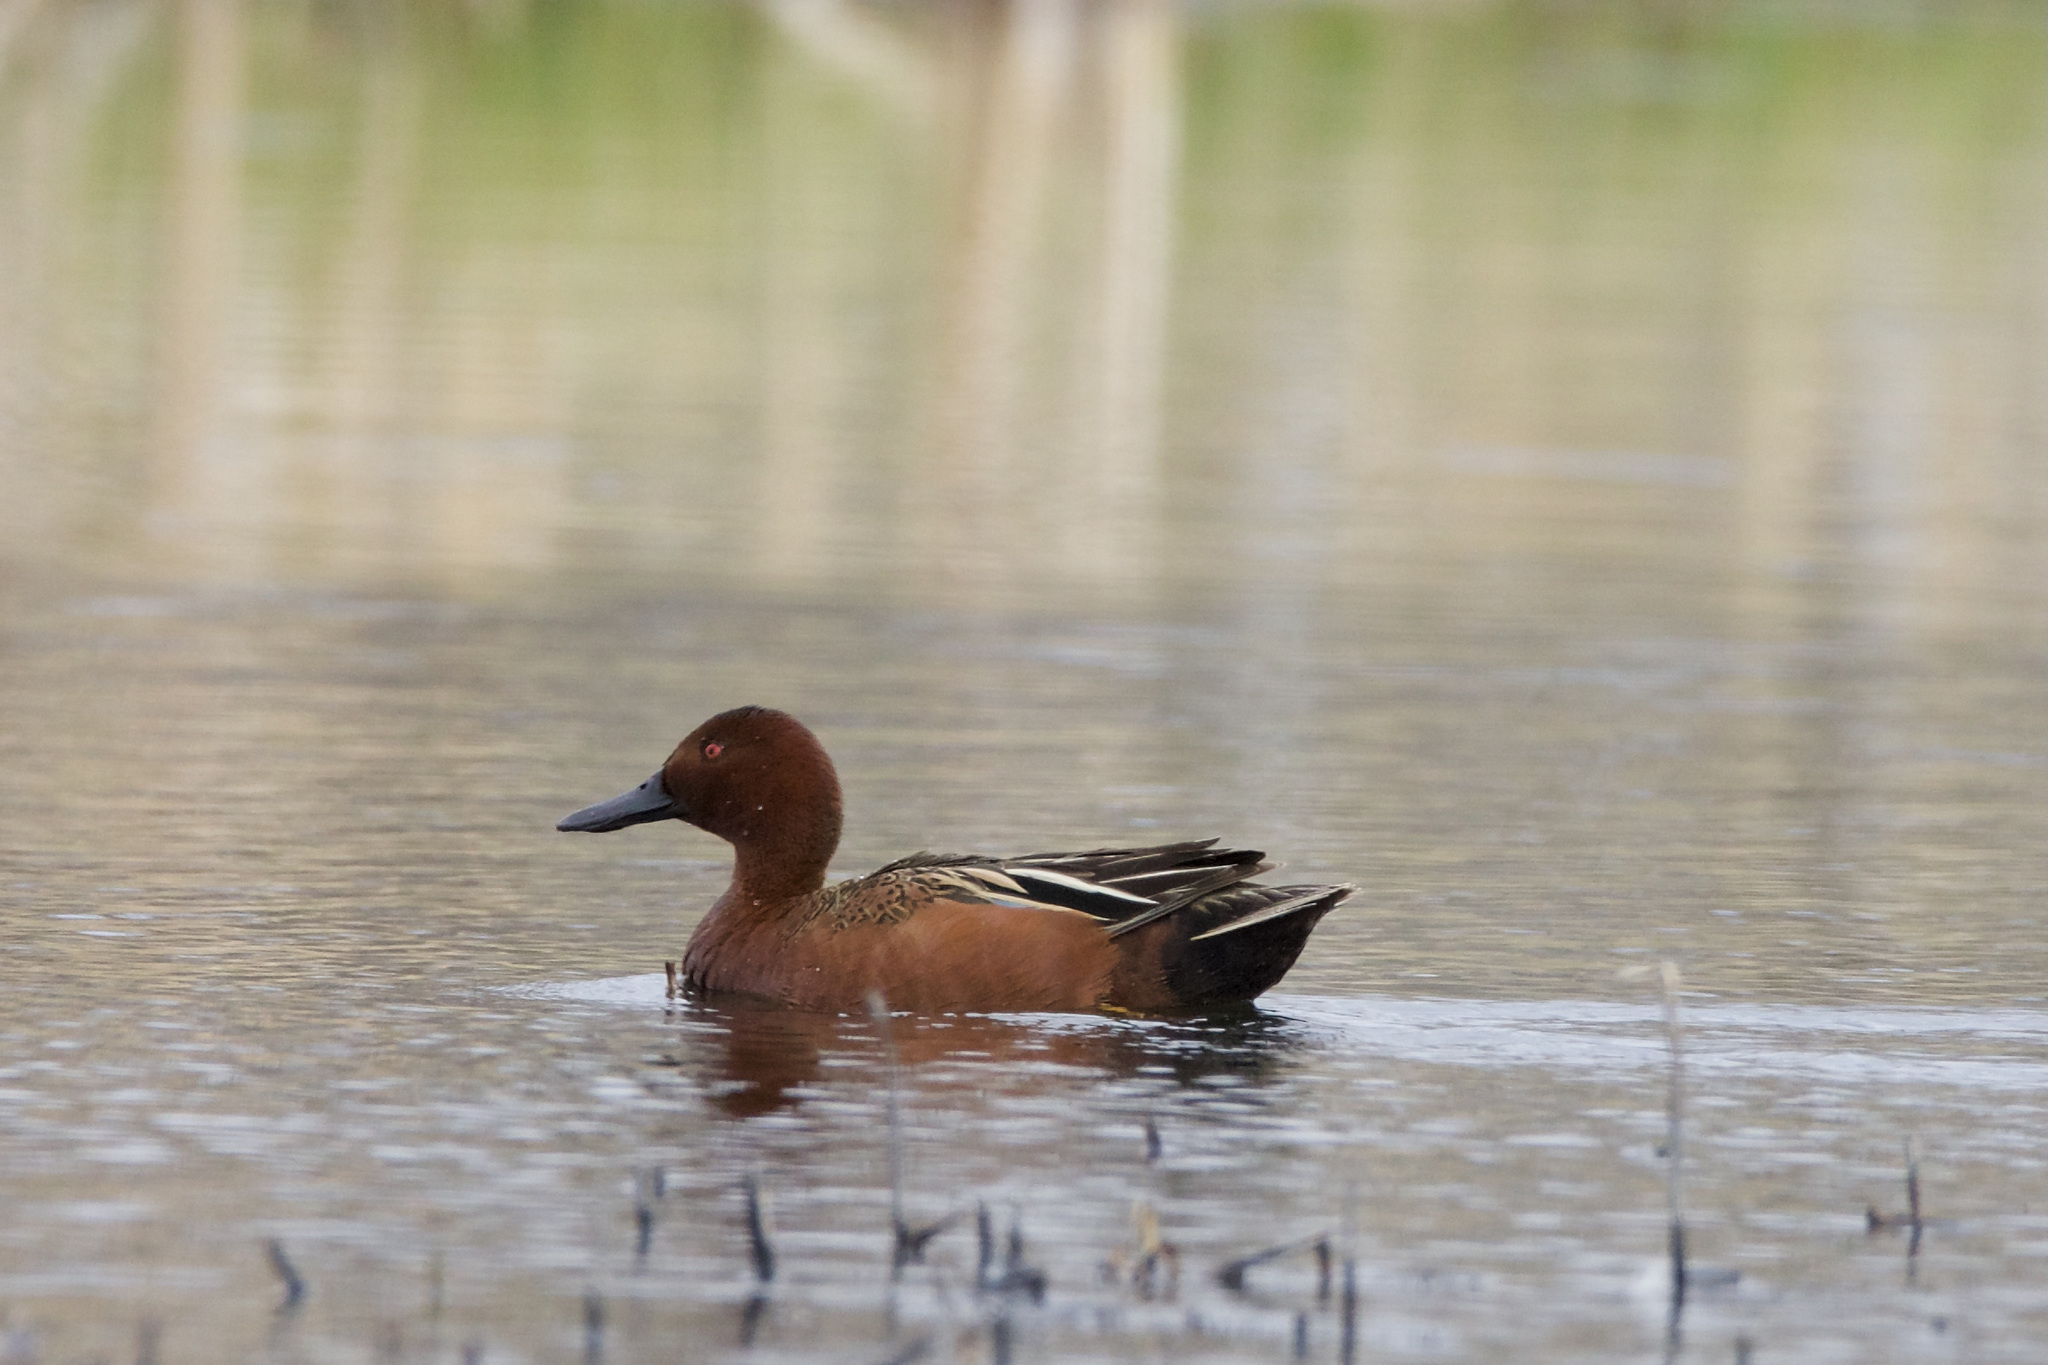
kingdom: Animalia
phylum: Chordata
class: Aves
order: Anseriformes
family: Anatidae
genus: Spatula
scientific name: Spatula cyanoptera
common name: Cinnamon teal
